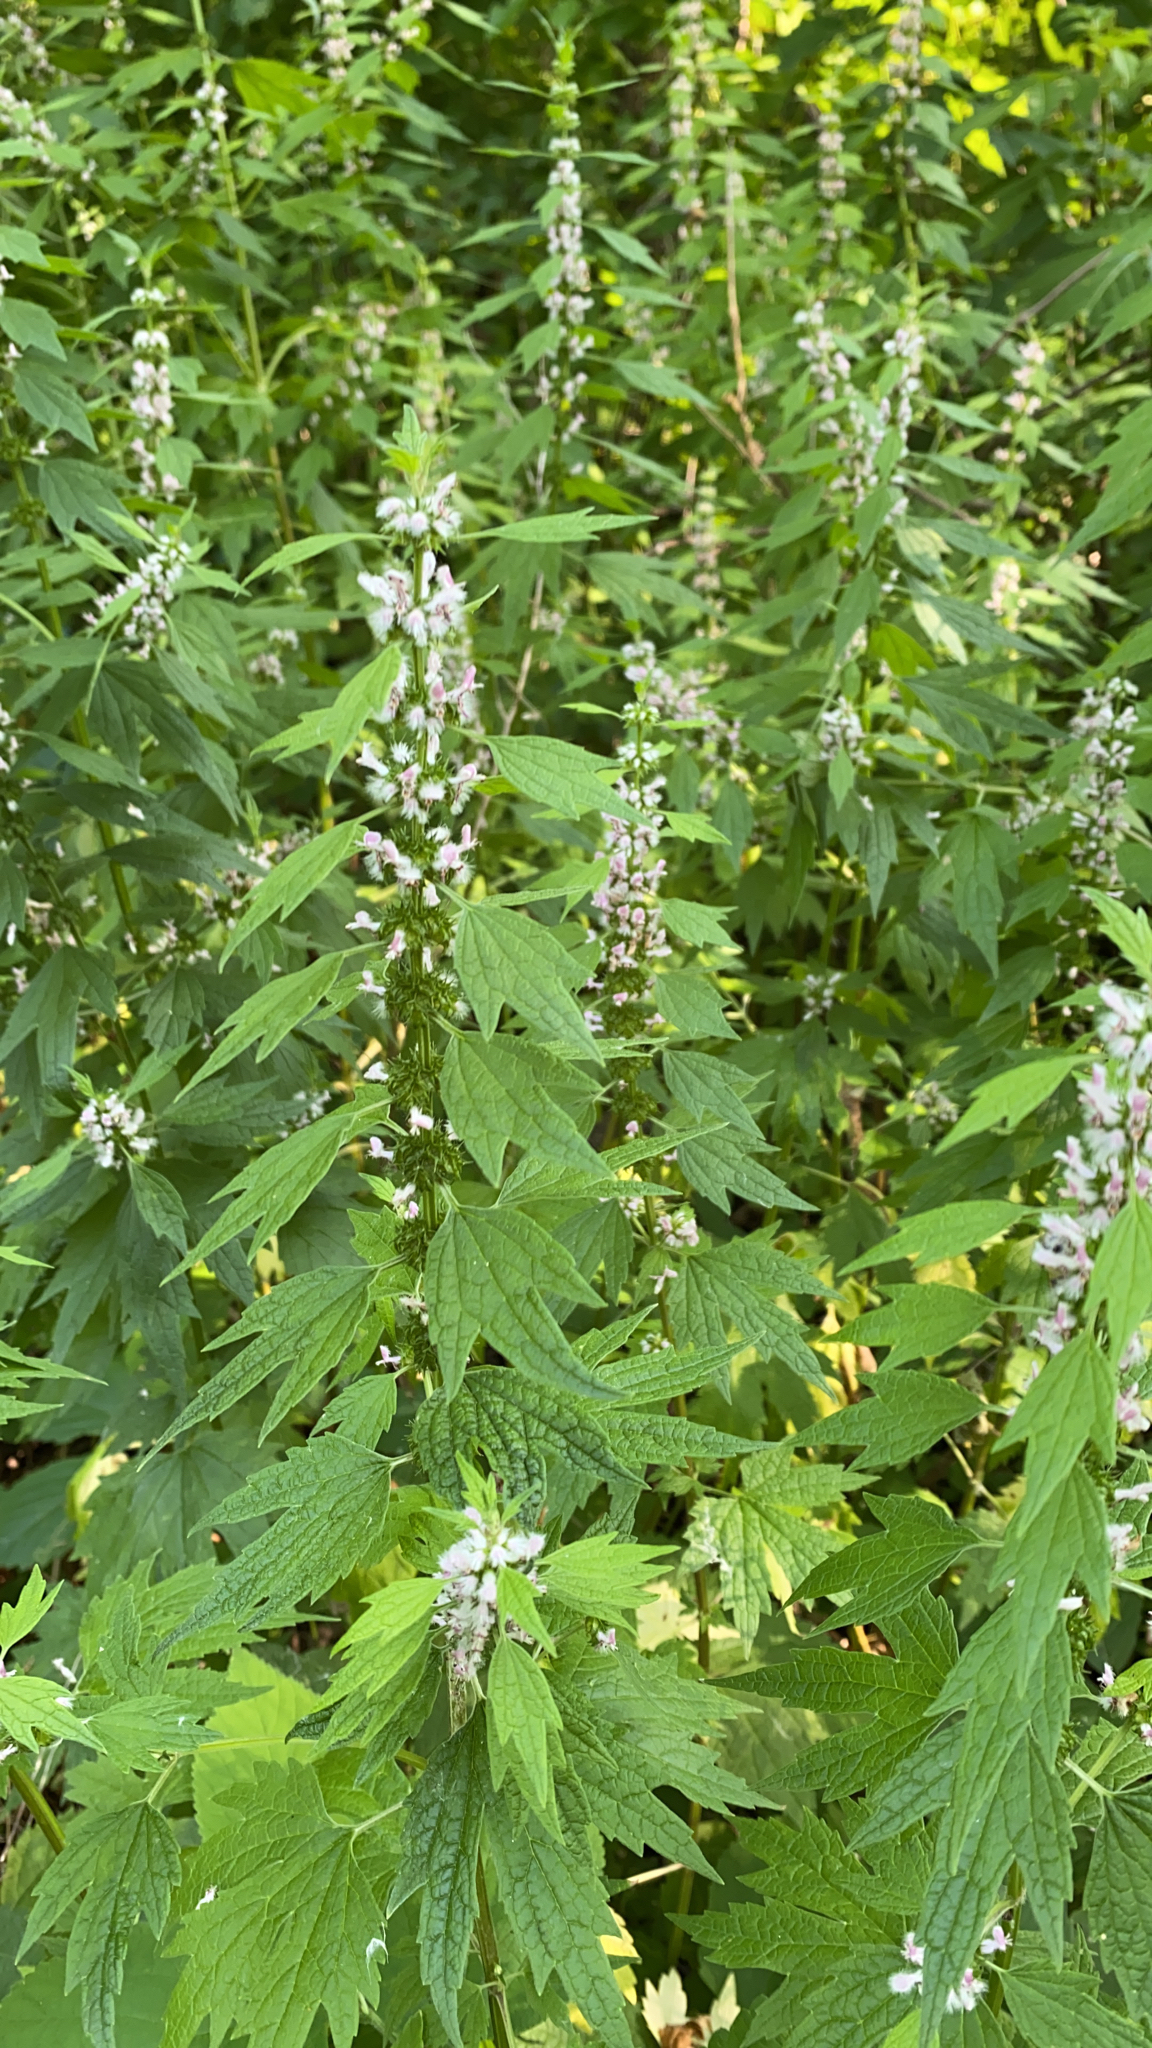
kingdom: Plantae
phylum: Tracheophyta
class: Magnoliopsida
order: Lamiales
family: Lamiaceae
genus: Leonurus
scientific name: Leonurus cardiaca
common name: Motherwort
